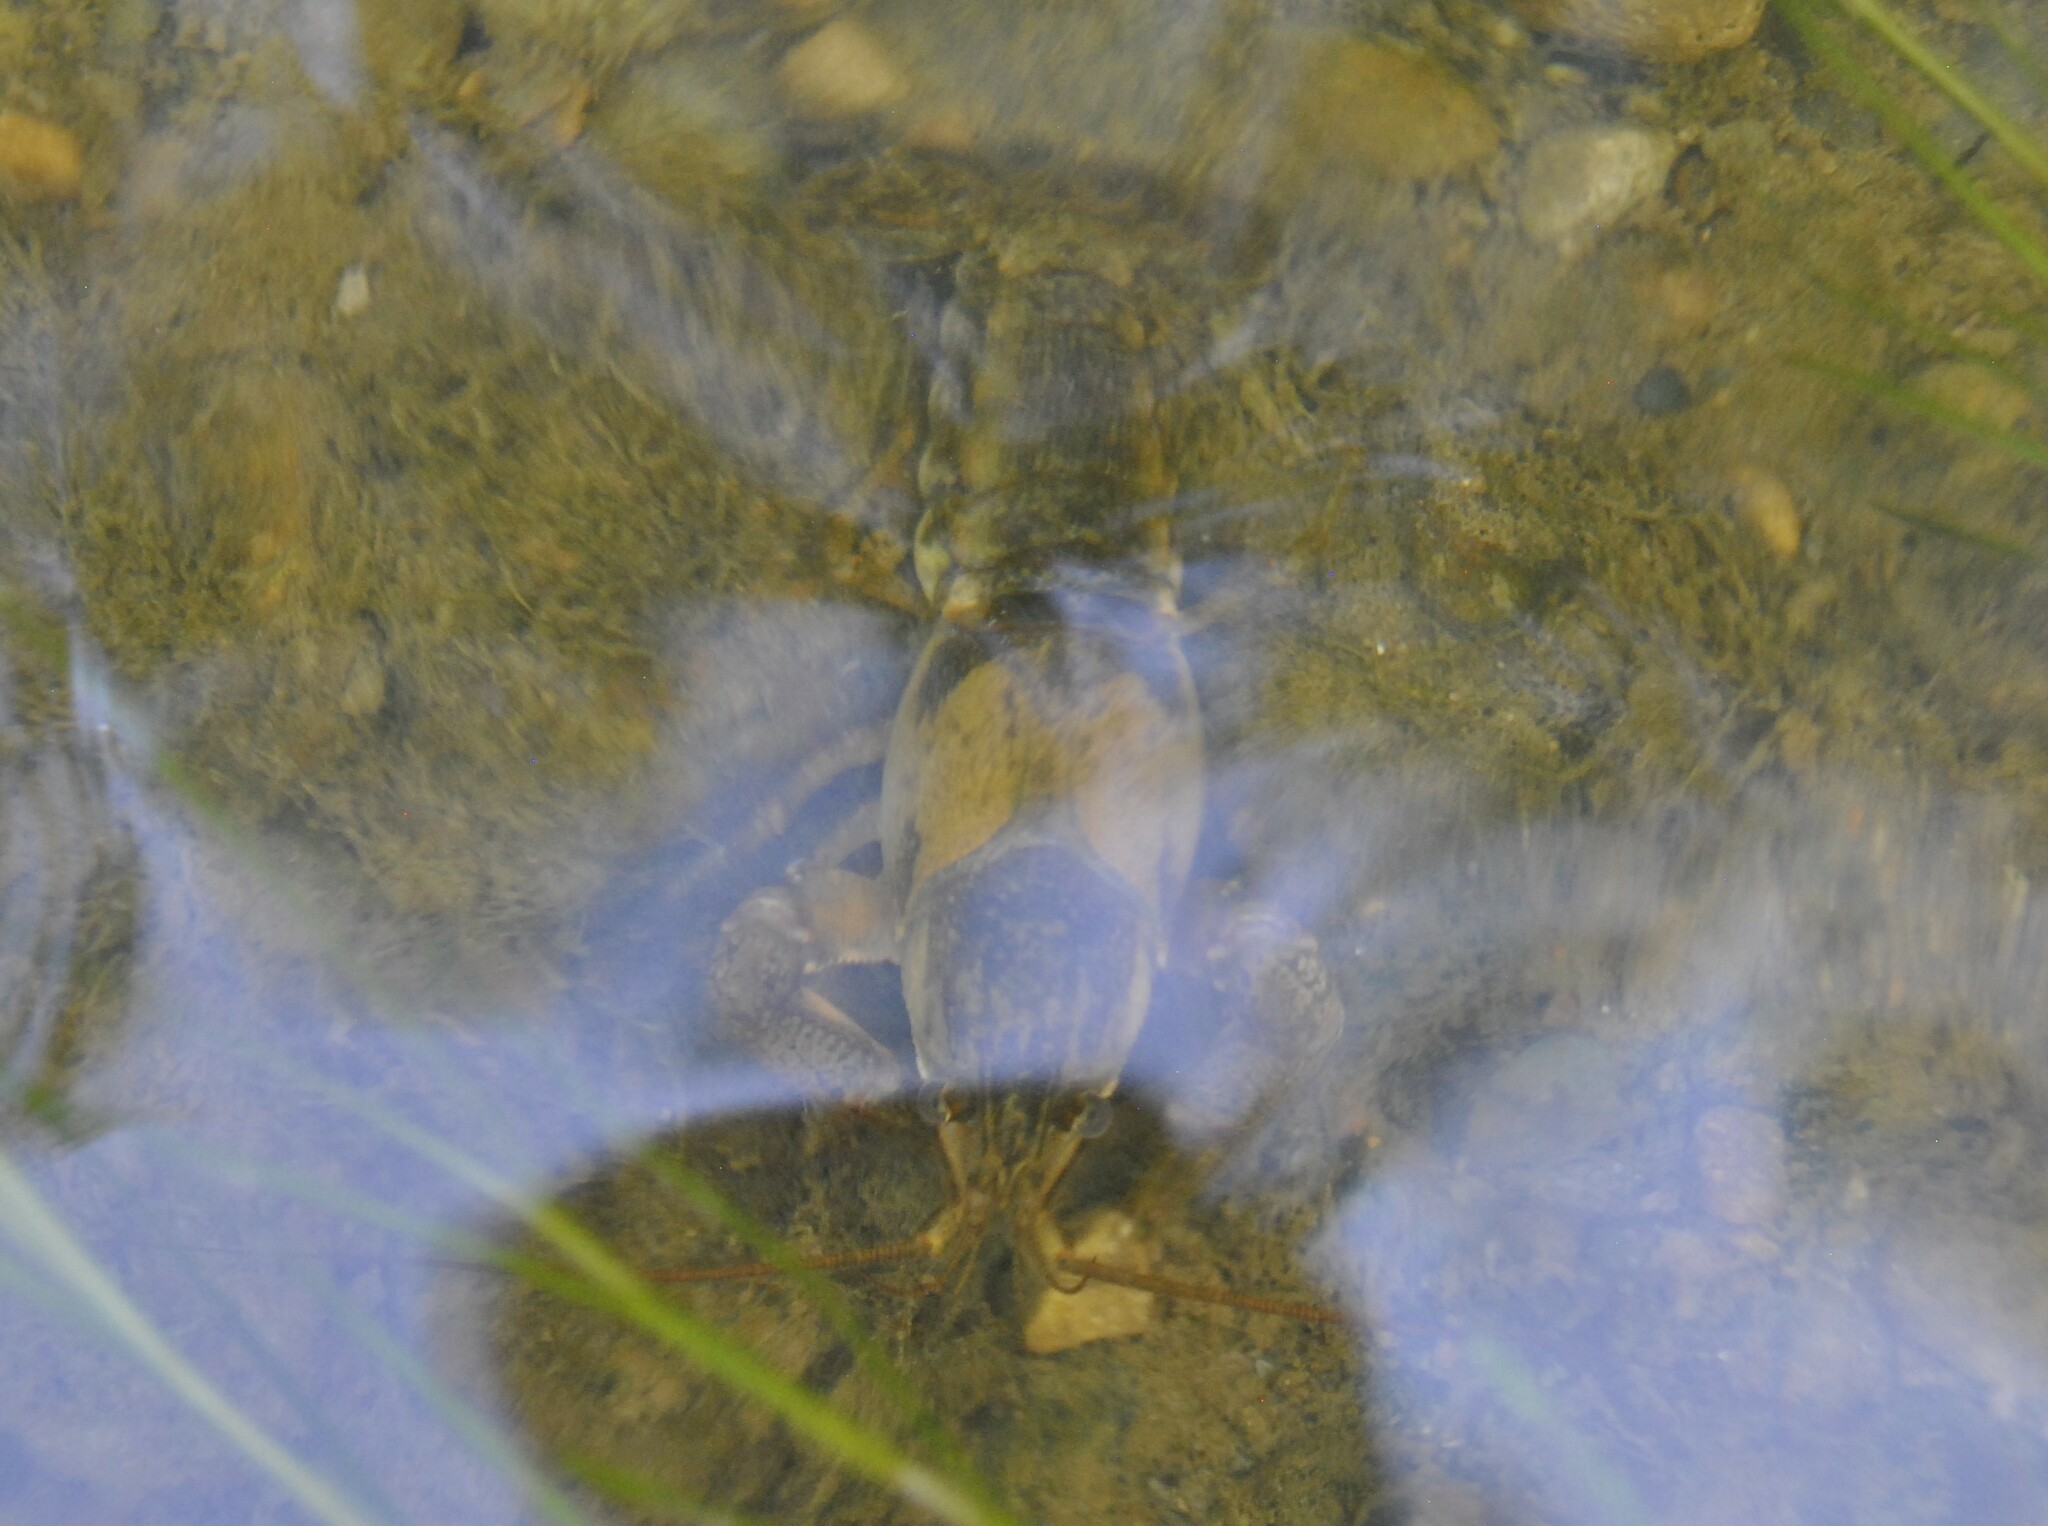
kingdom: Animalia
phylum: Arthropoda
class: Malacostraca
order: Decapoda
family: Cambaridae
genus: Faxonius
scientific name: Faxonius propinquus
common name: Northern clearwater crayfish
